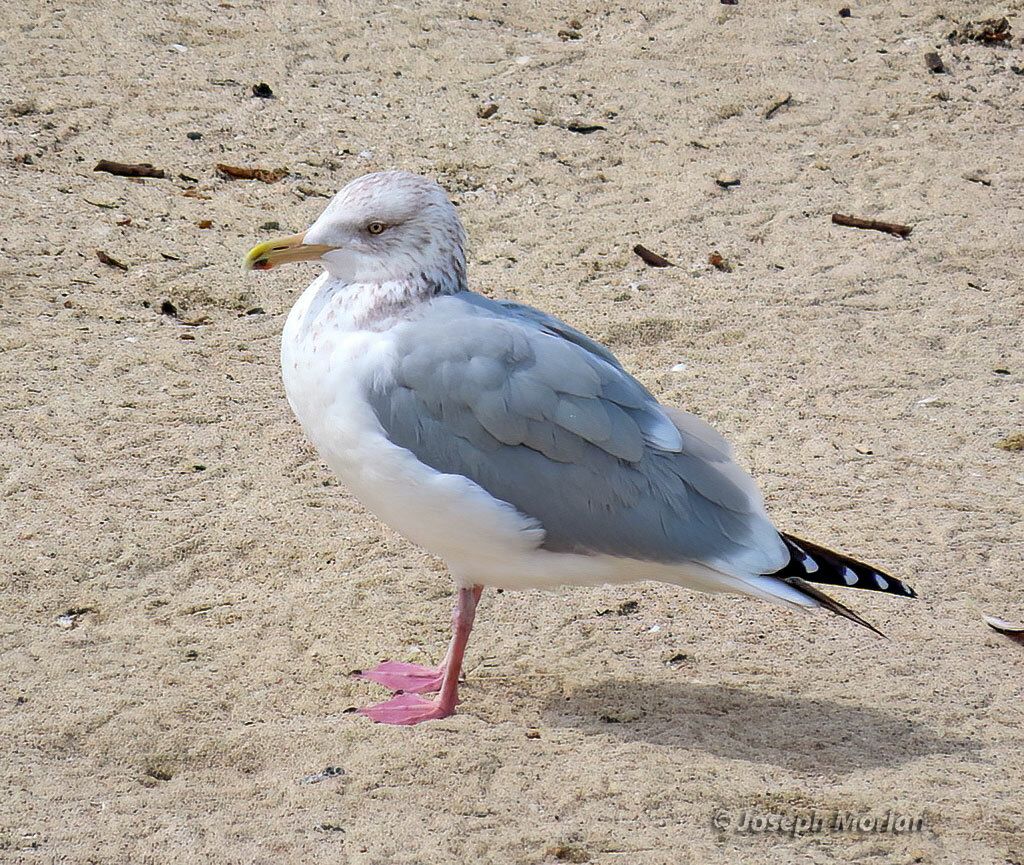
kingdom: Animalia
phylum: Chordata
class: Aves
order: Charadriiformes
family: Laridae
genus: Larus
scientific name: Larus argentatus
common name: Herring gull
